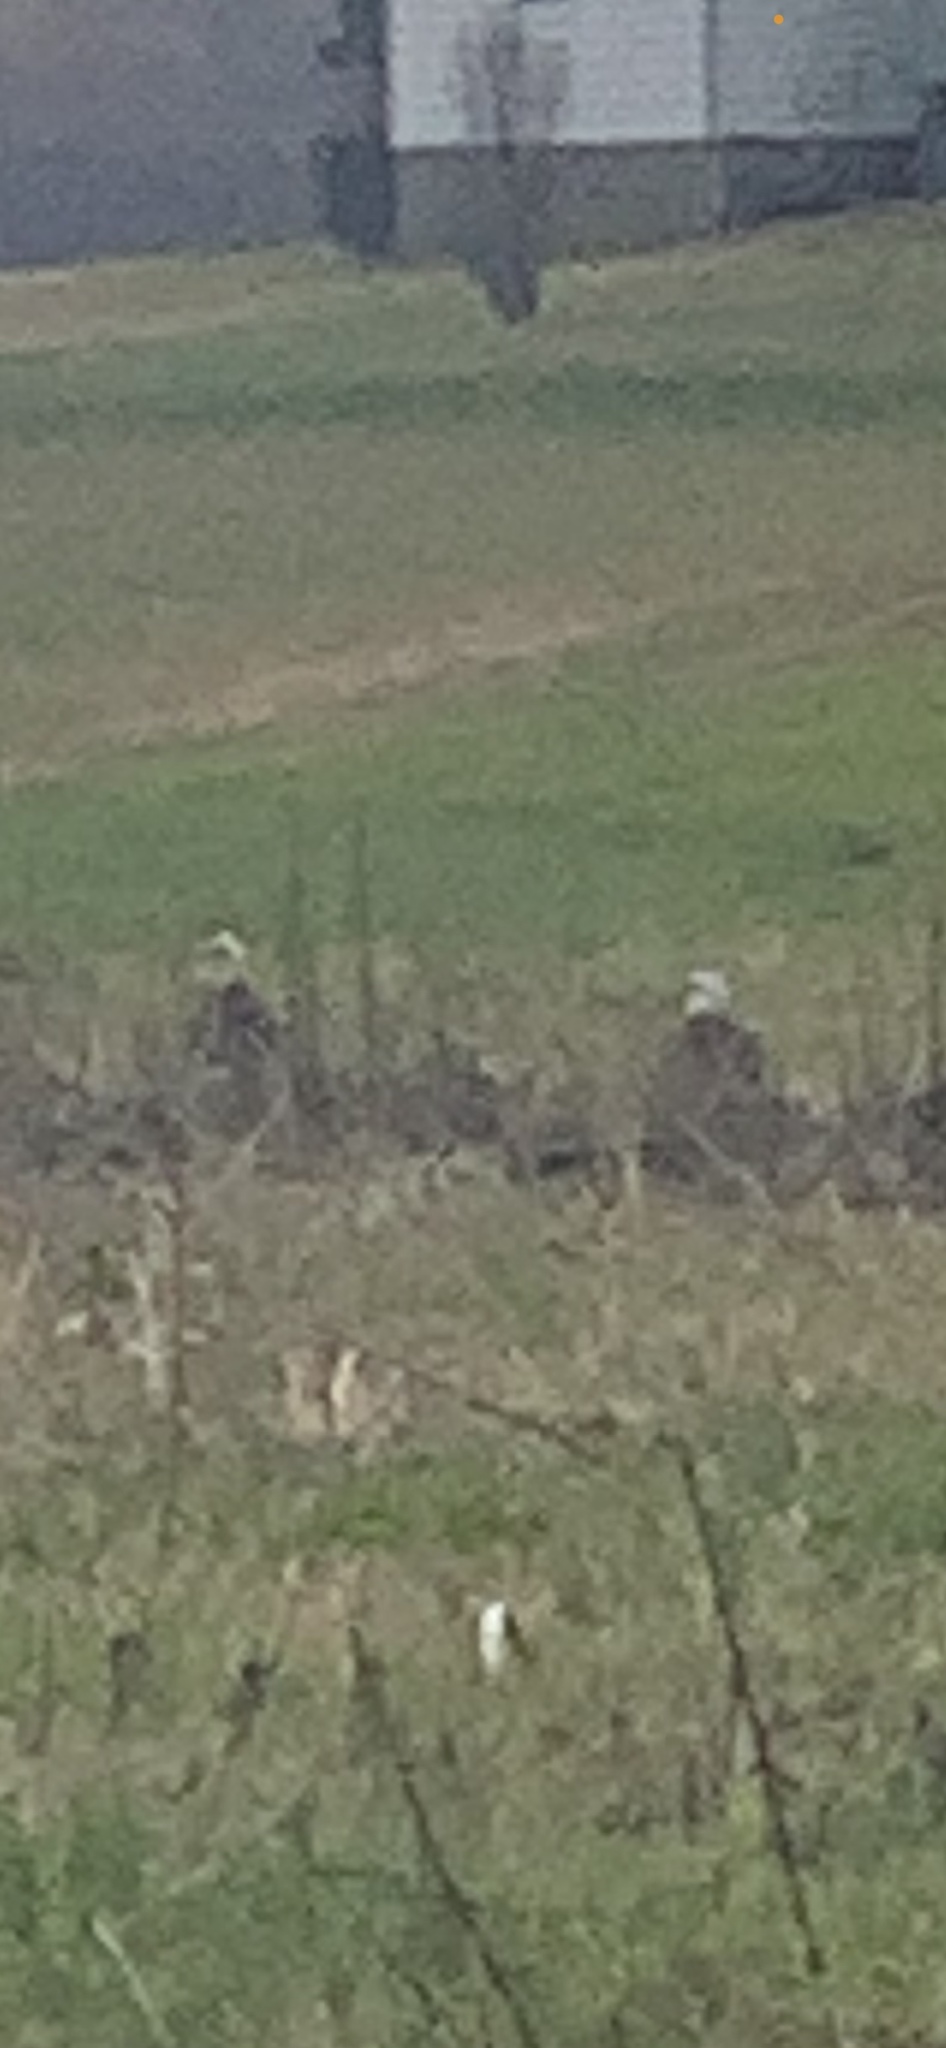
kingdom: Animalia
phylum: Chordata
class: Aves
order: Accipitriformes
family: Accipitridae
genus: Haliaeetus
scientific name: Haliaeetus leucocephalus
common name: Bald eagle
